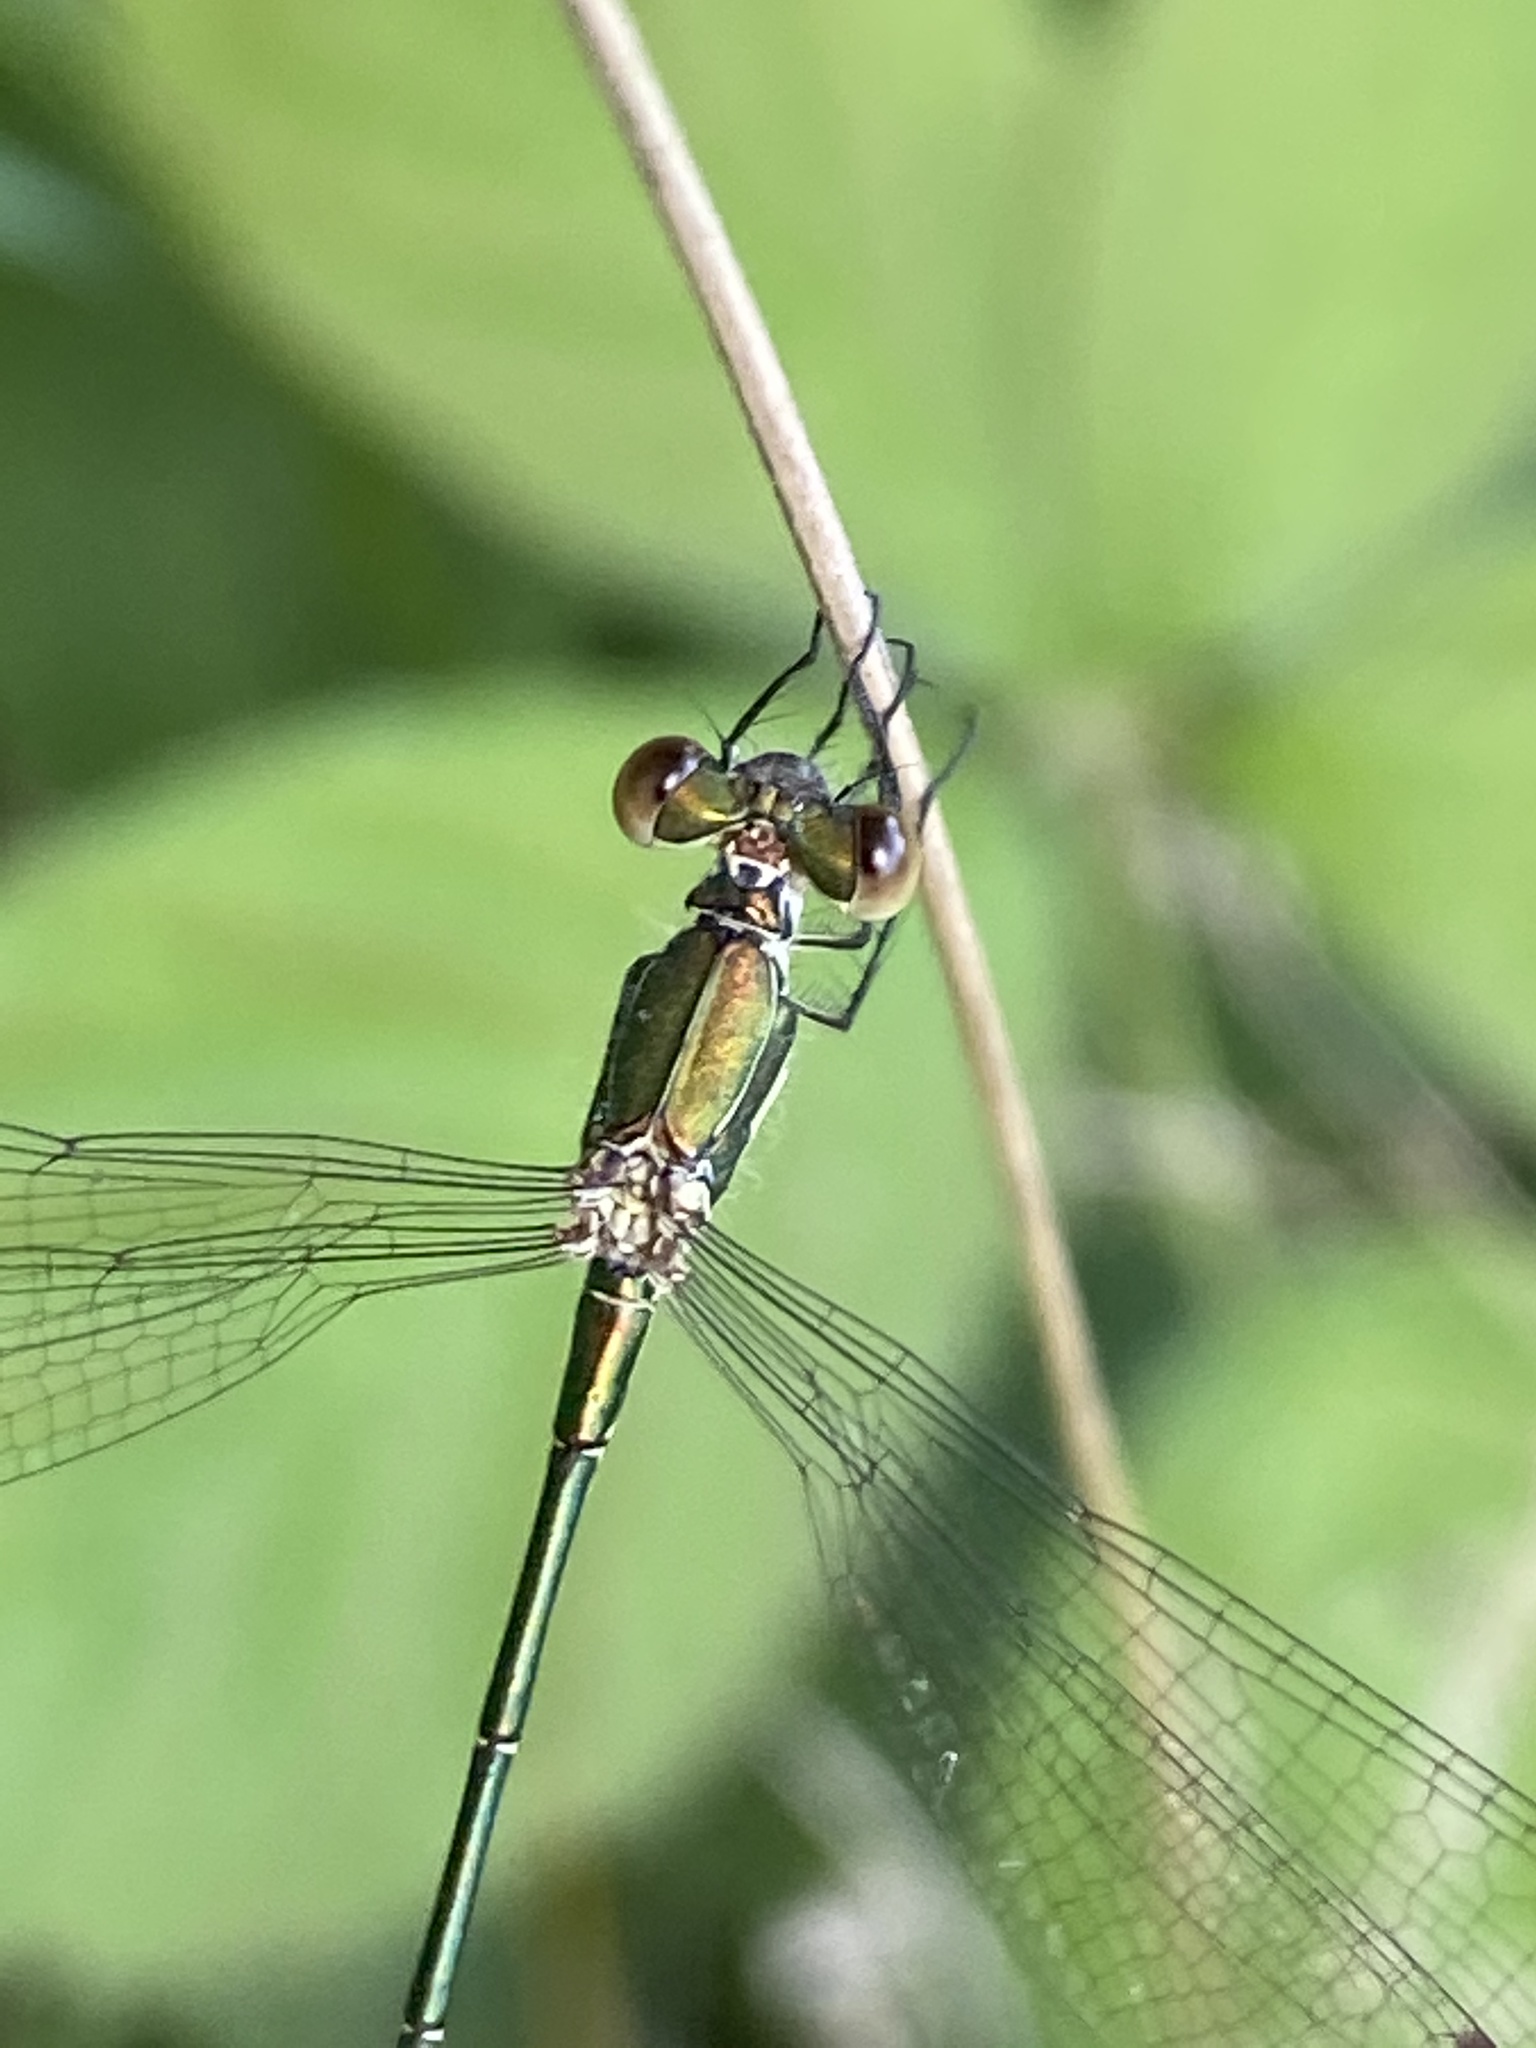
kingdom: Animalia
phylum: Arthropoda
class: Insecta
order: Odonata
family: Lestidae
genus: Lestes
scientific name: Lestes virens
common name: Small emerald spreadwing
